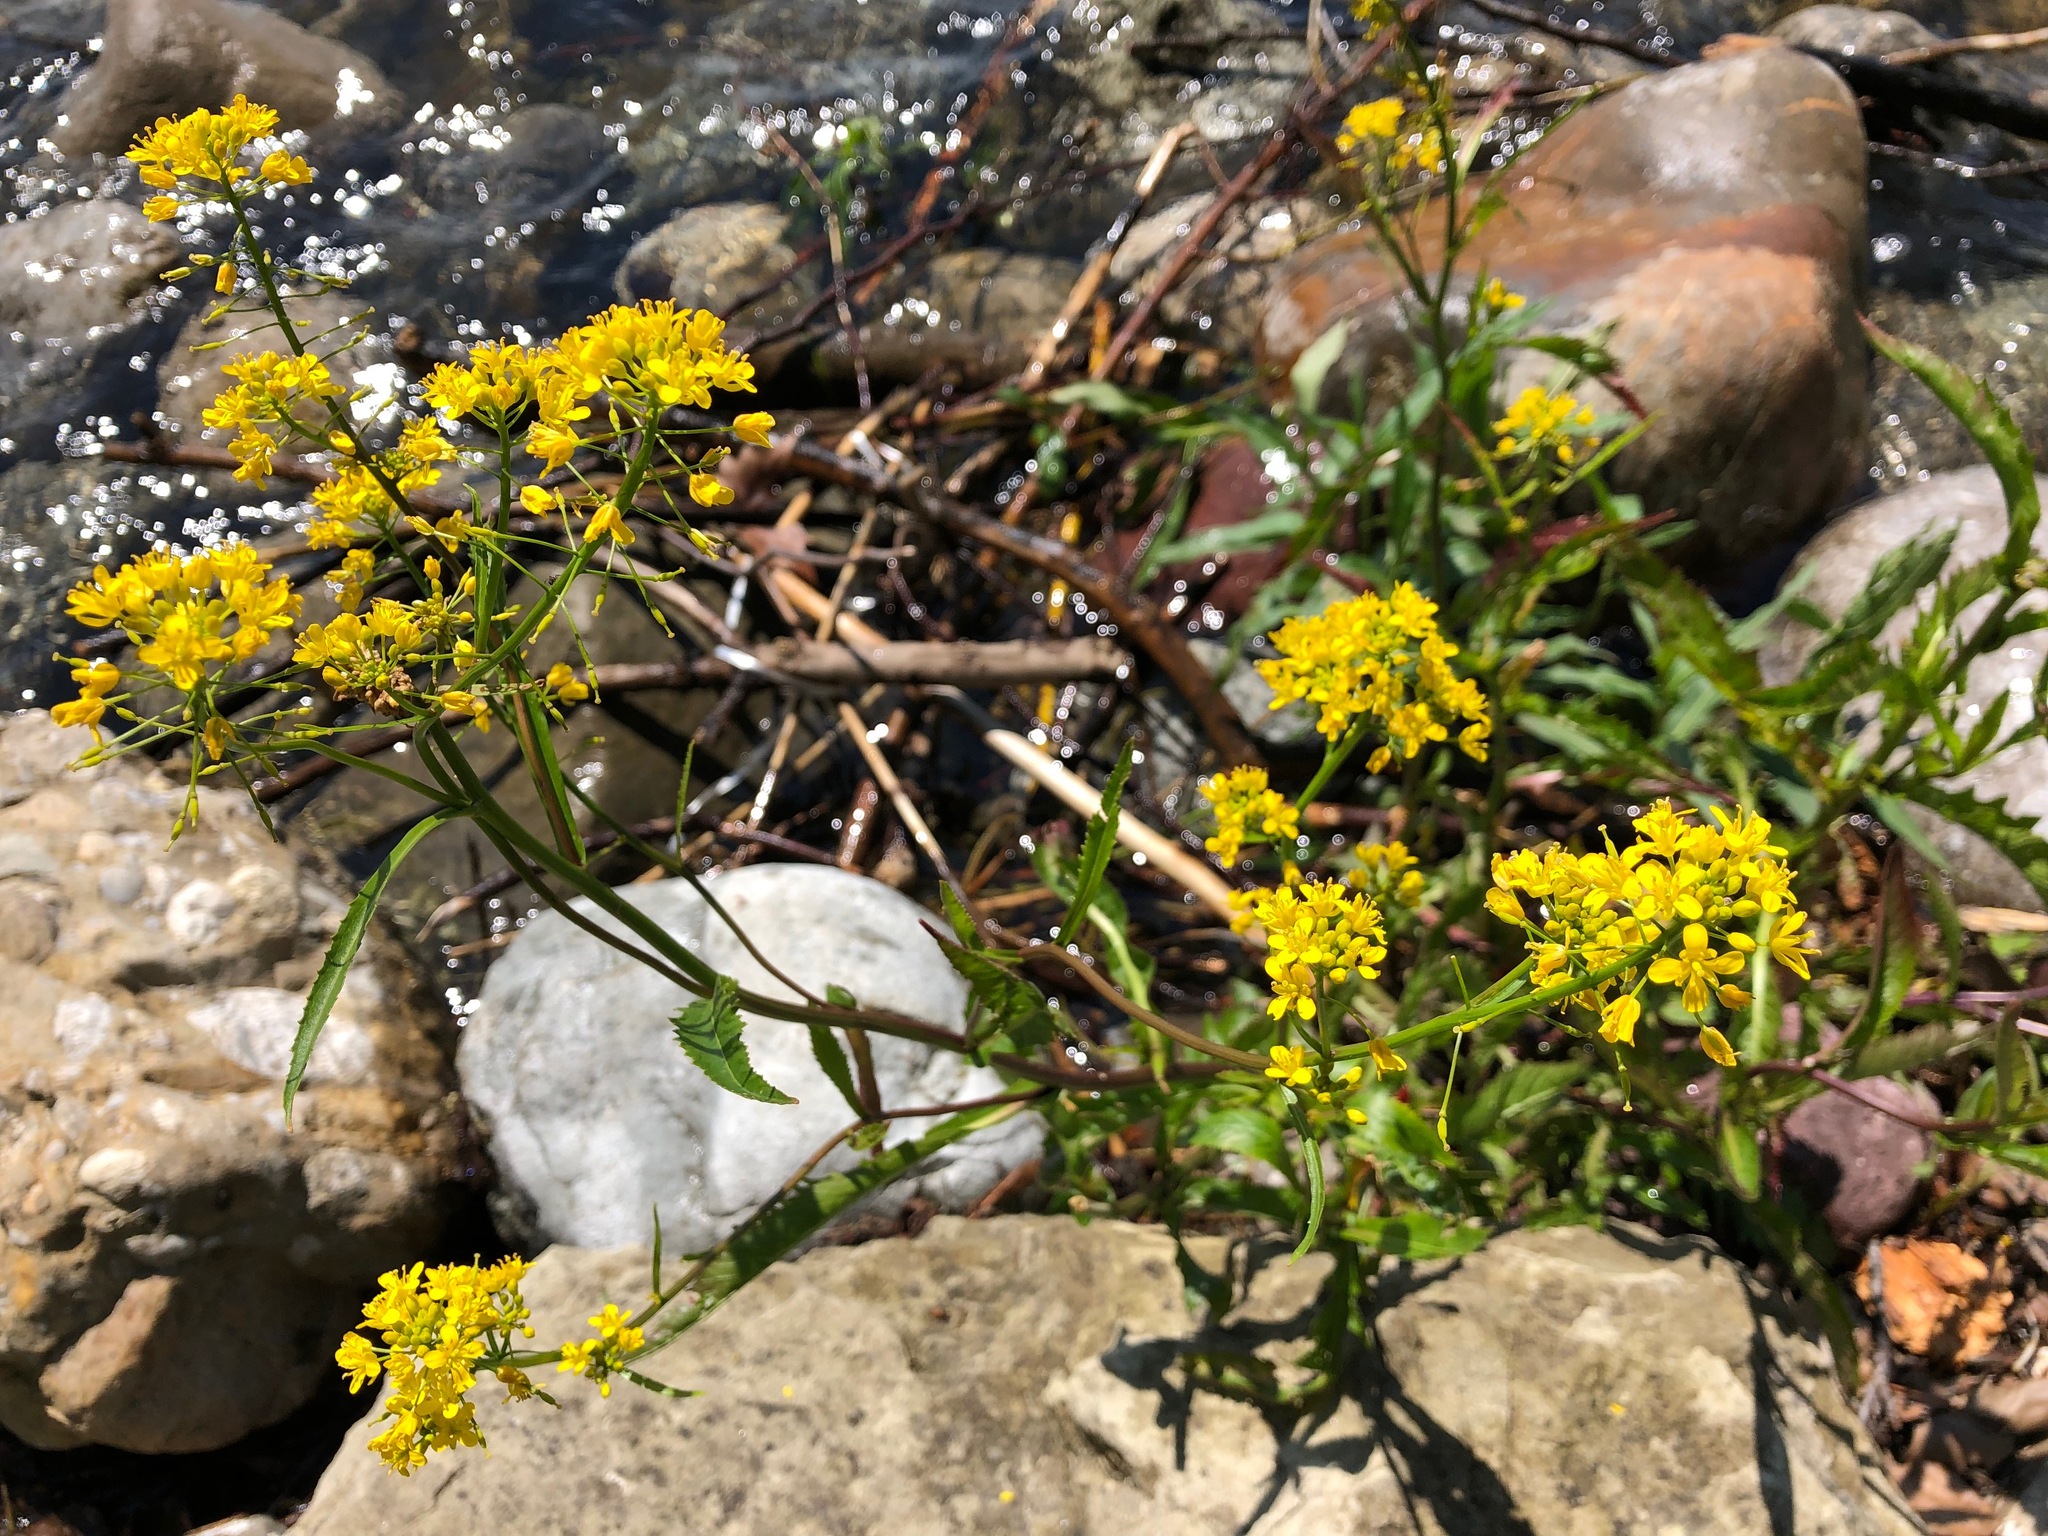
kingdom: Plantae
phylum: Tracheophyta
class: Magnoliopsida
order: Brassicales
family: Brassicaceae
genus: Rorippa
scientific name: Rorippa amphibia
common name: Great yellow-cress
